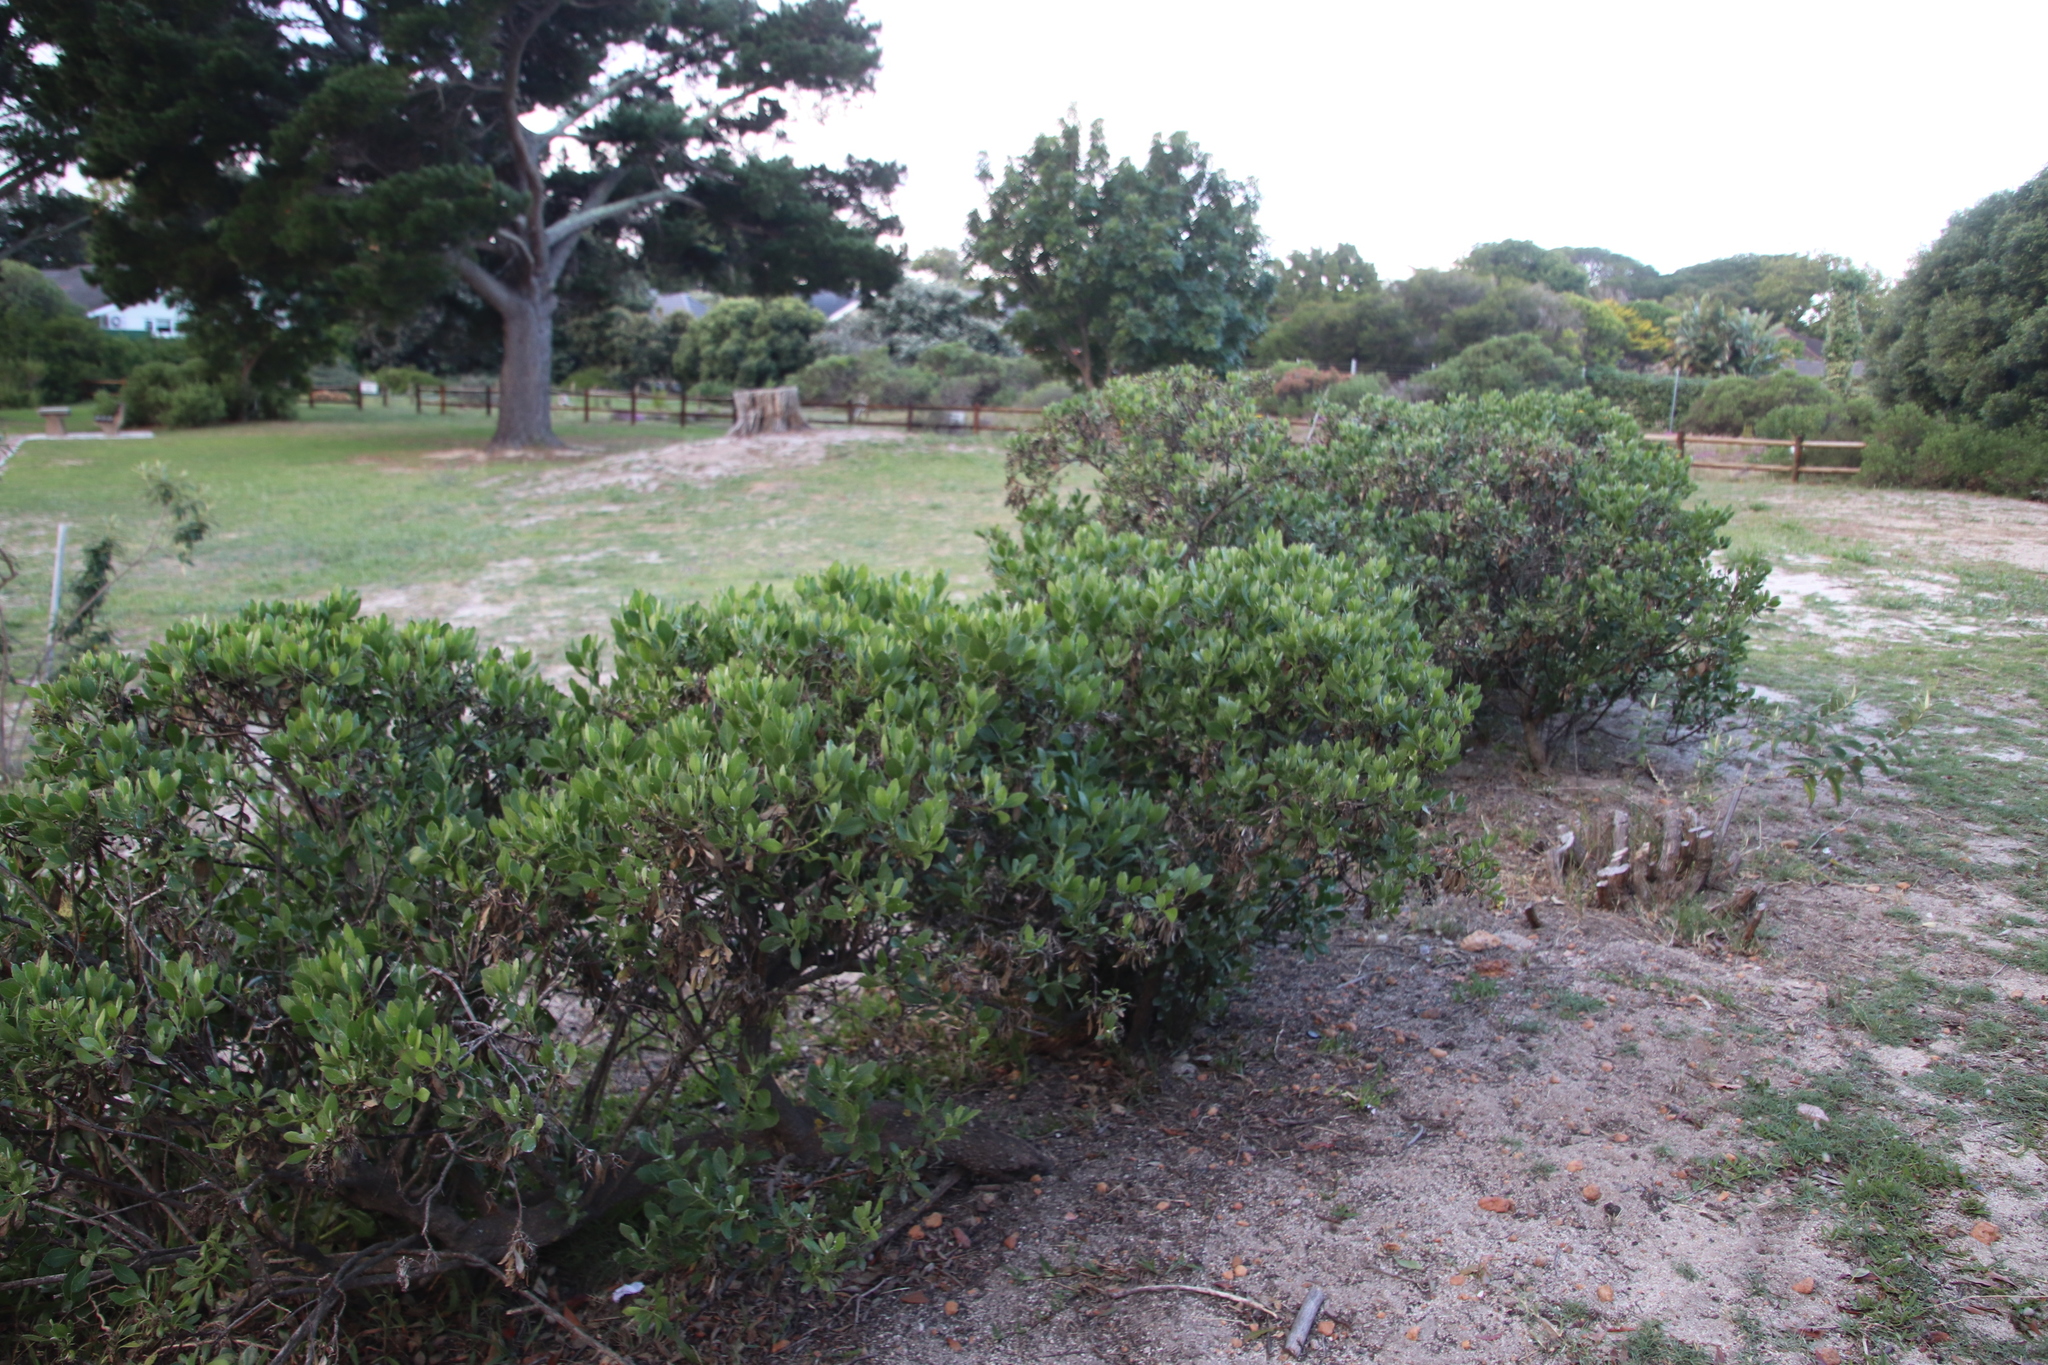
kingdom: Plantae
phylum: Tracheophyta
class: Magnoliopsida
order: Asterales
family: Asteraceae
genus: Osteospermum
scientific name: Osteospermum moniliferum
